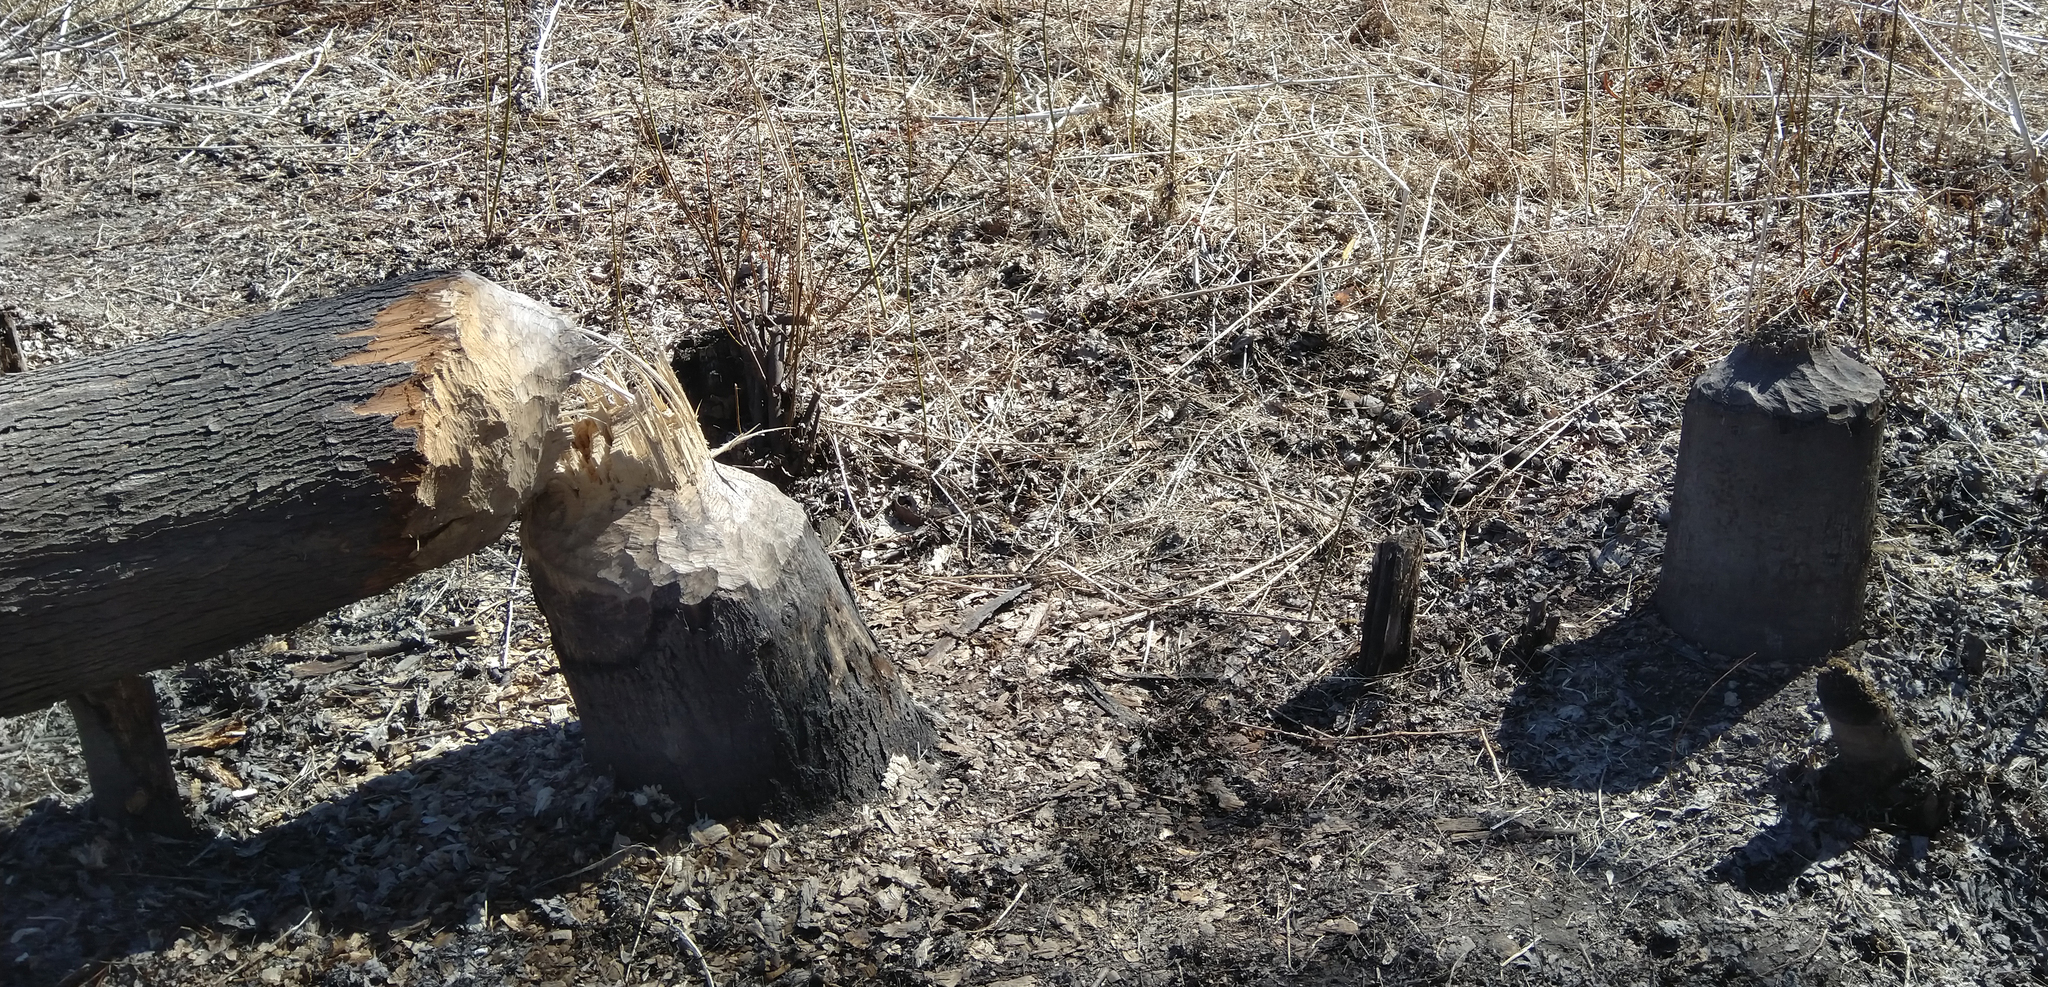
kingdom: Animalia
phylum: Chordata
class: Mammalia
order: Rodentia
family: Castoridae
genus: Castor
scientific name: Castor canadensis
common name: American beaver
